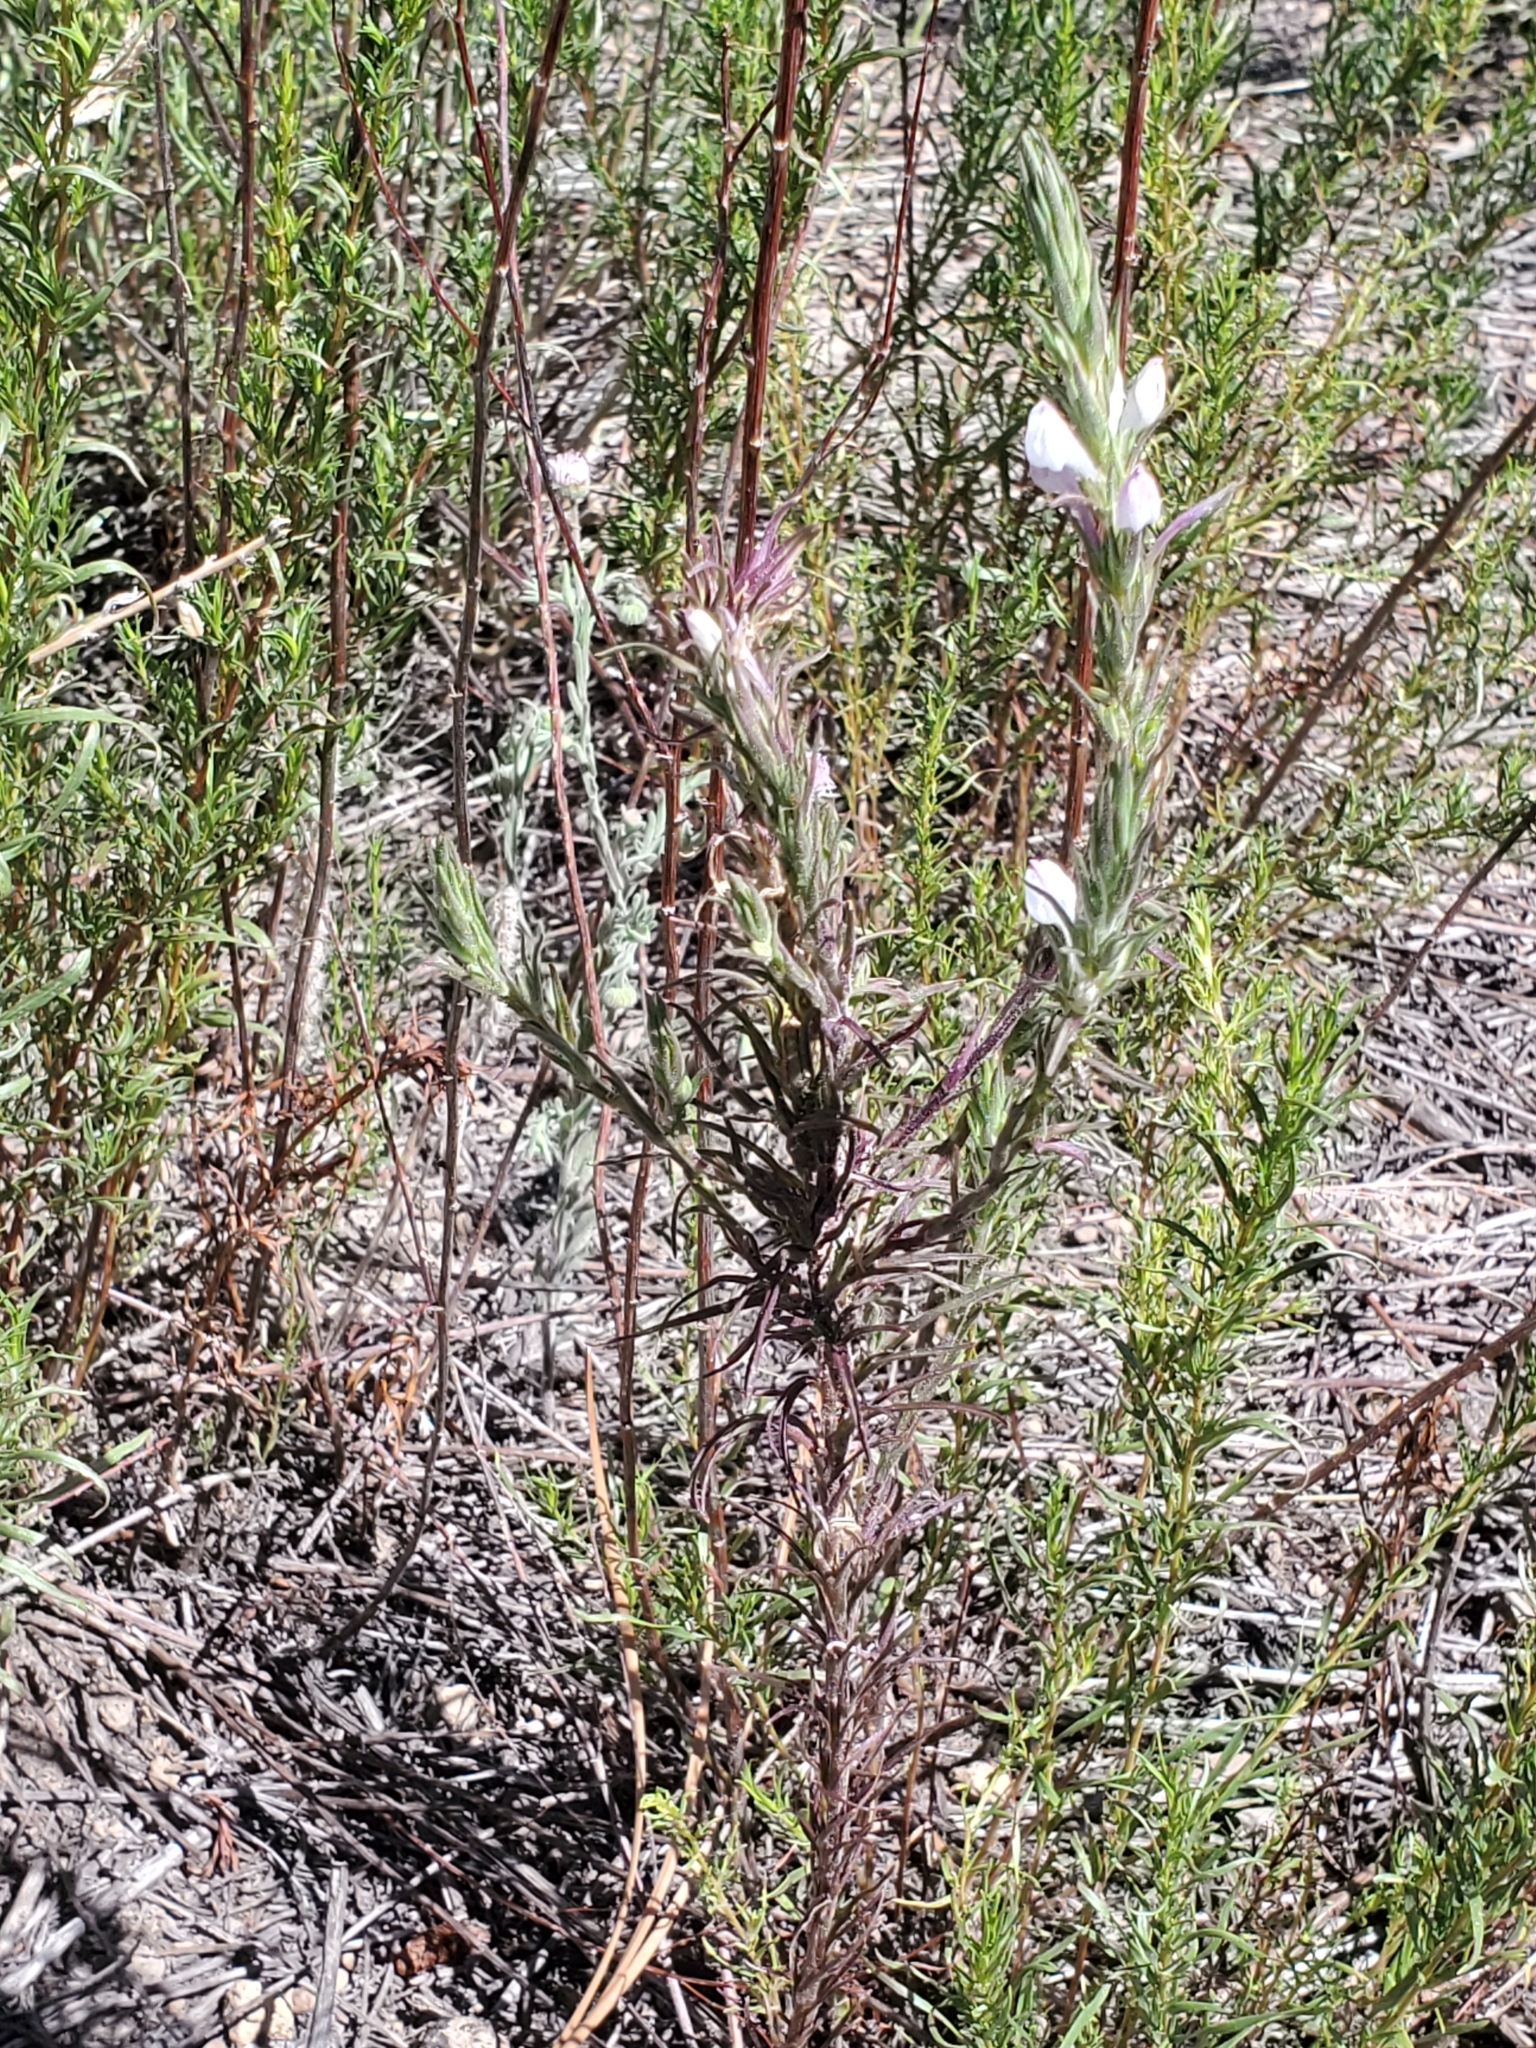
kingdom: Plantae
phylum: Tracheophyta
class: Magnoliopsida
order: Lamiales
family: Orobanchaceae
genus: Orthocarpus
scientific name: Orthocarpus purpureoalbus
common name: Violet owl-clover
